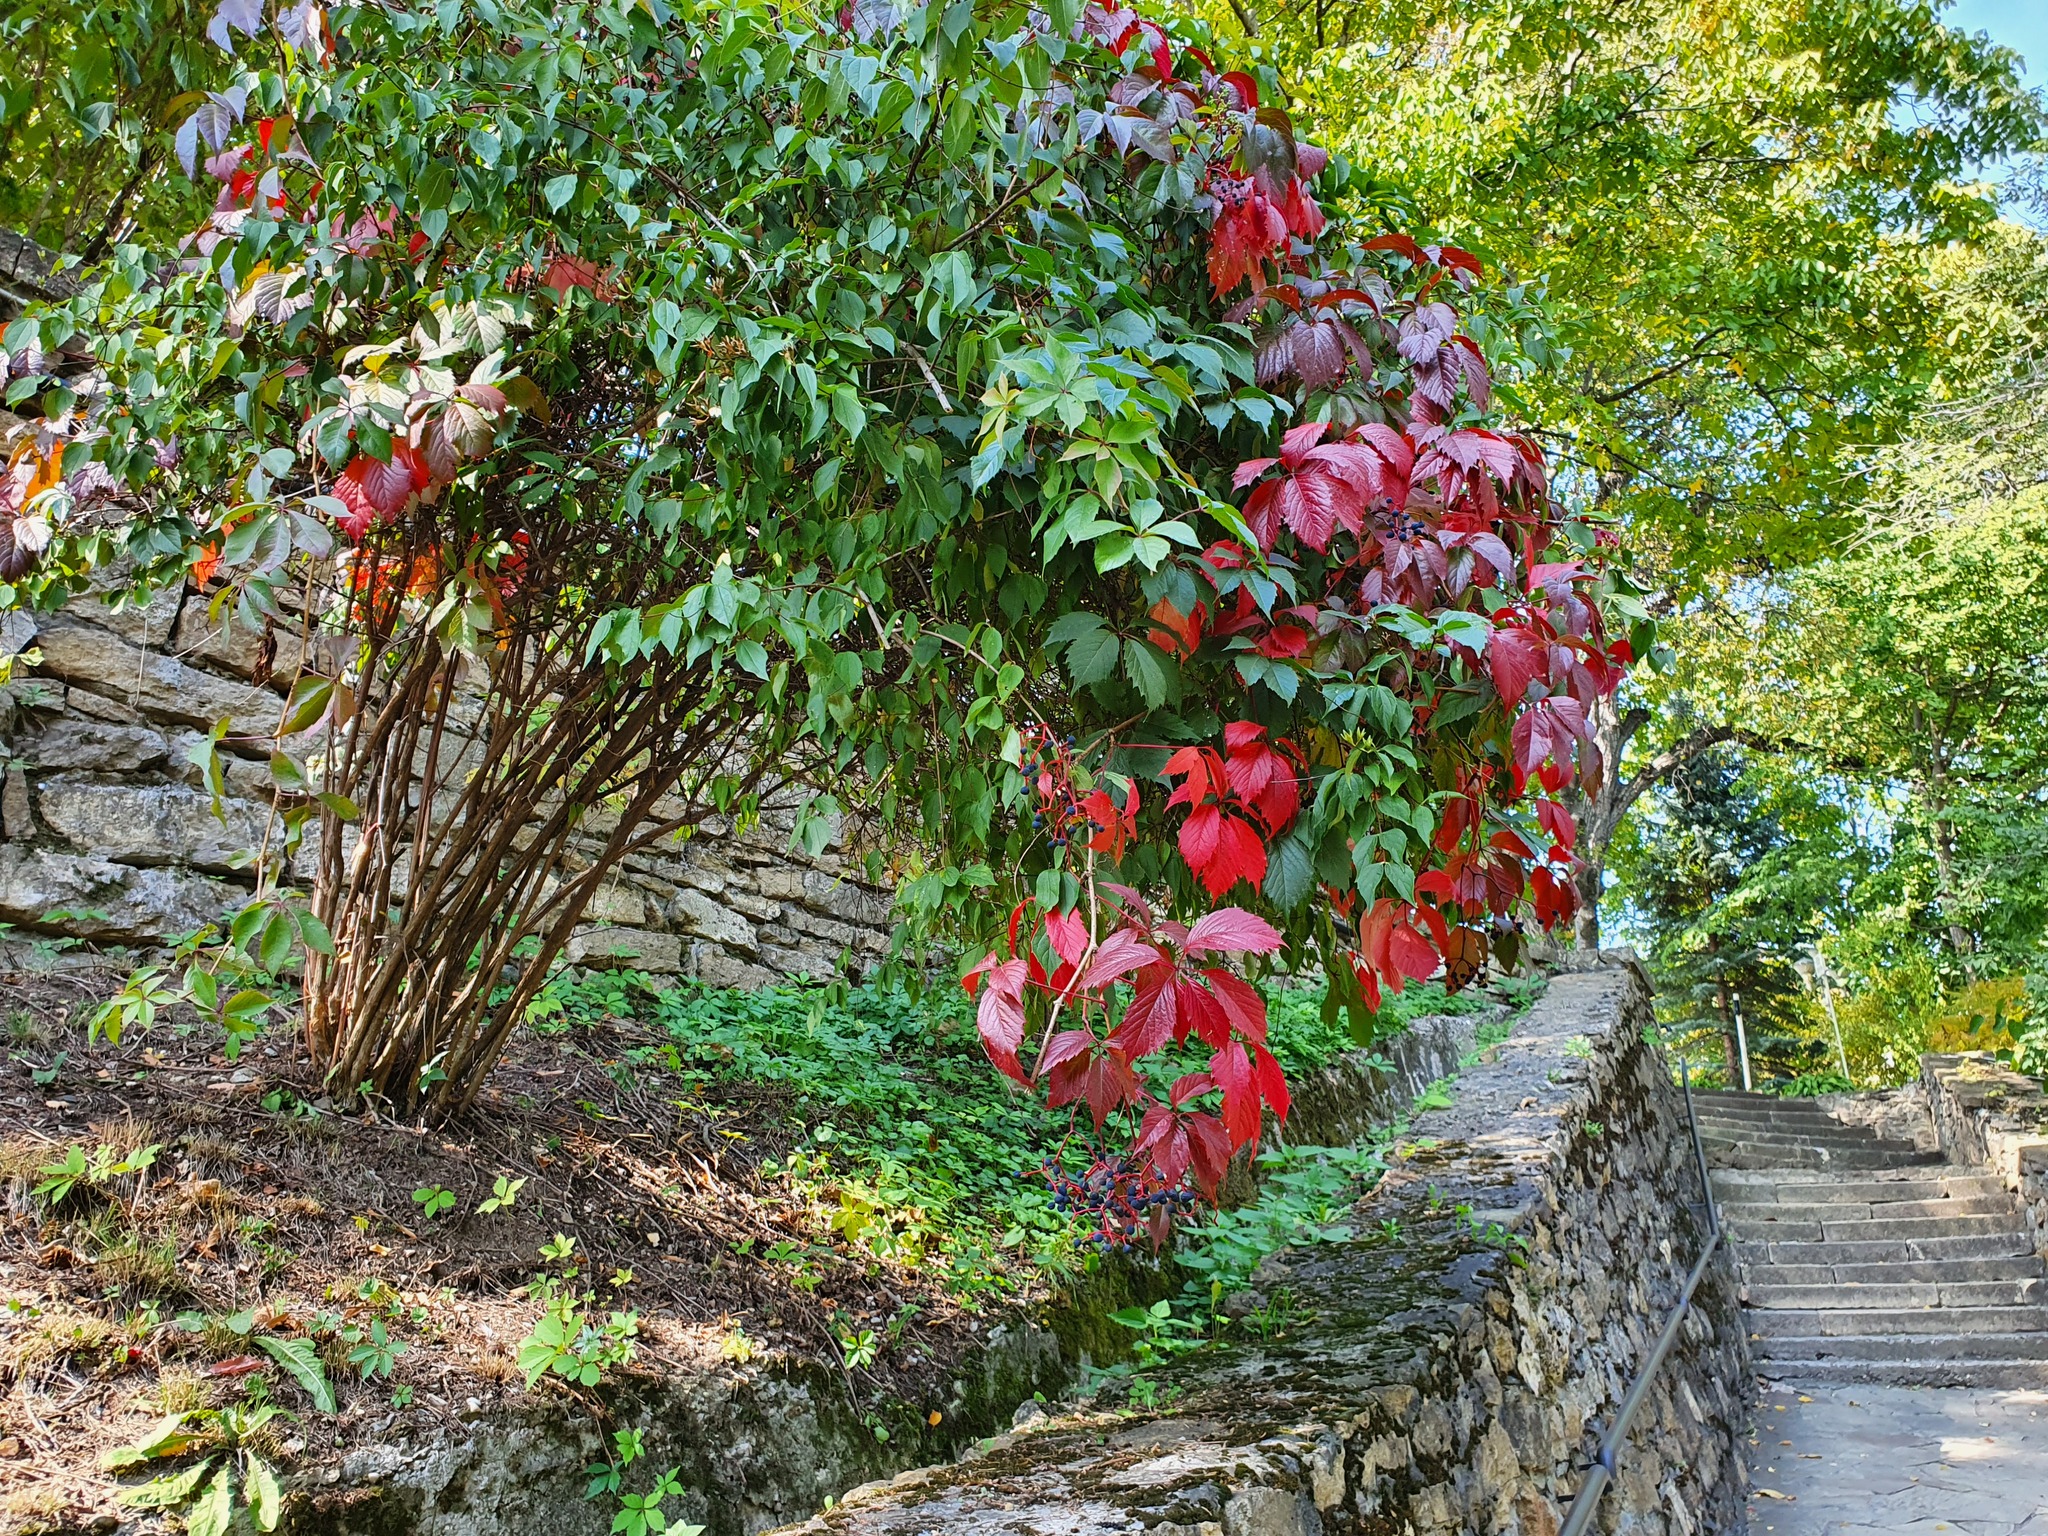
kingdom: Plantae
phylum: Tracheophyta
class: Magnoliopsida
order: Vitales
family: Vitaceae
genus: Parthenocissus
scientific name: Parthenocissus inserta
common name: False virginia-creeper
